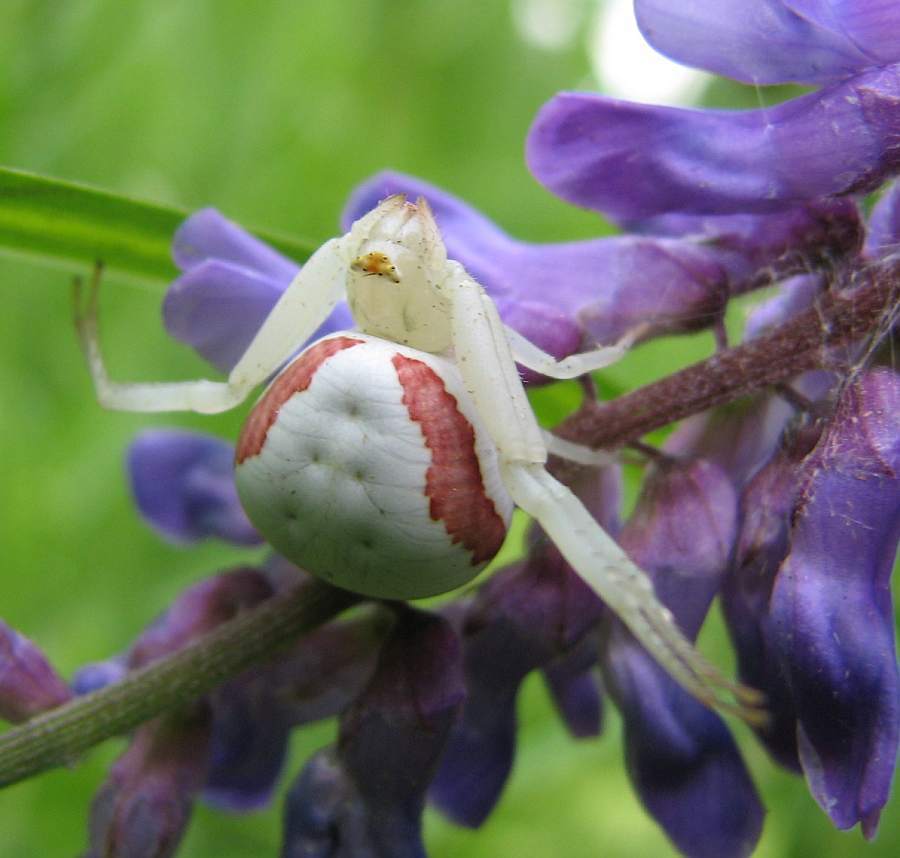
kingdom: Animalia
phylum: Arthropoda
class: Arachnida
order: Araneae
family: Thomisidae
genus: Misumena
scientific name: Misumena vatia
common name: Goldenrod crab spider
